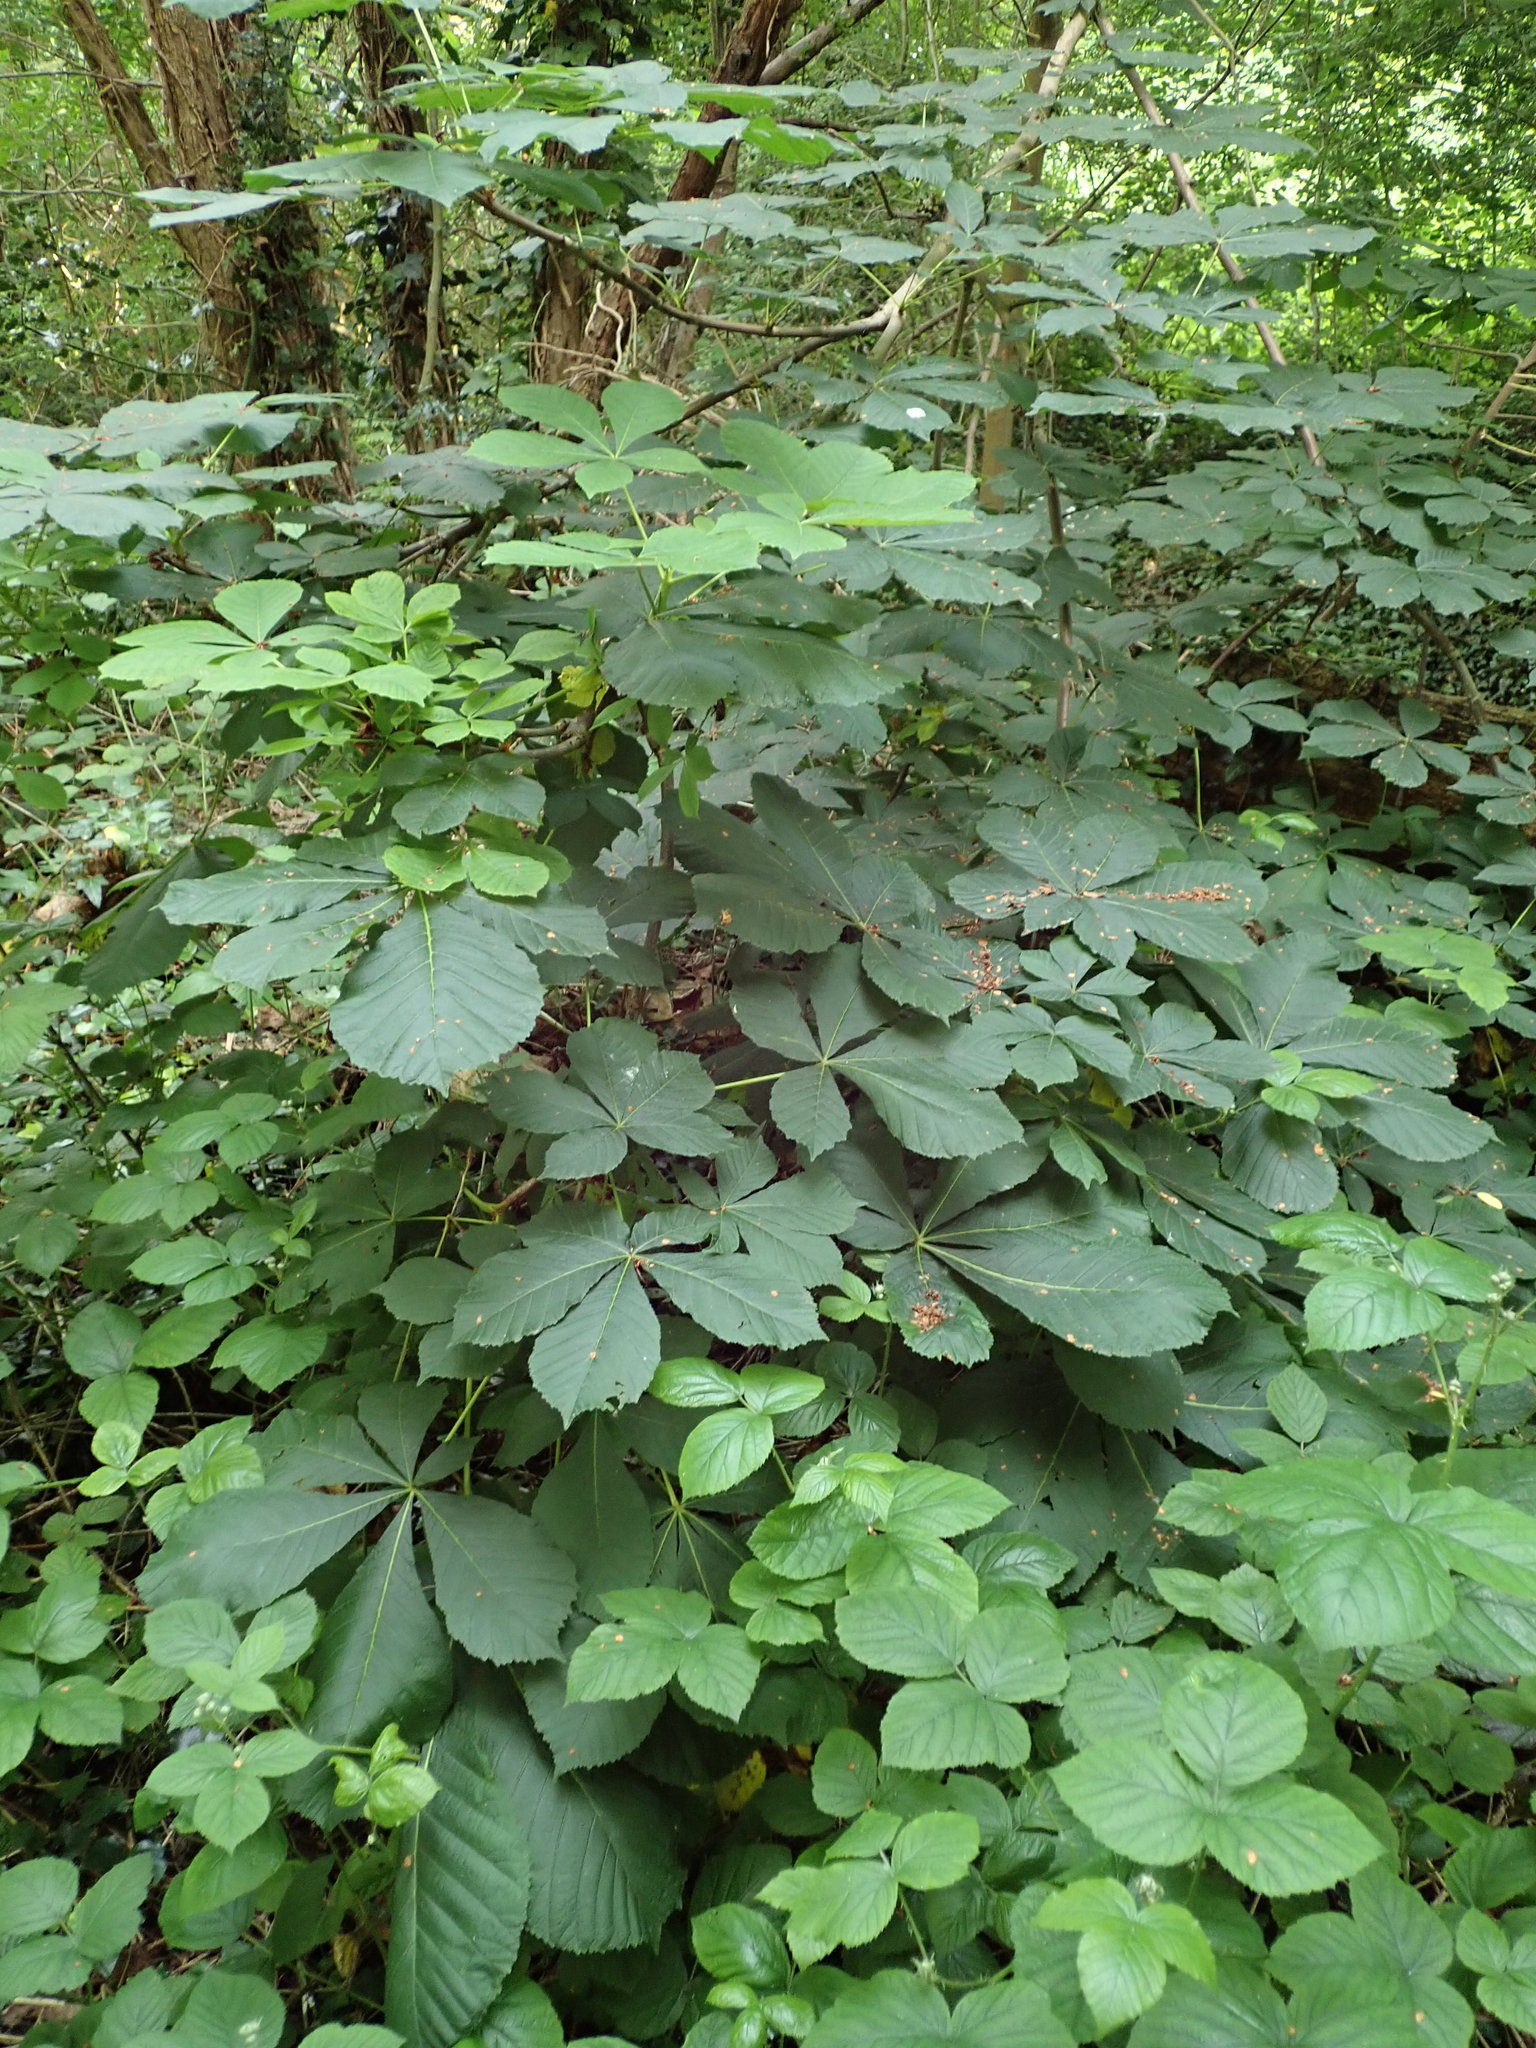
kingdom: Plantae
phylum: Tracheophyta
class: Magnoliopsida
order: Sapindales
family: Sapindaceae
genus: Aesculus
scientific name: Aesculus hippocastanum
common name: Horse-chestnut
